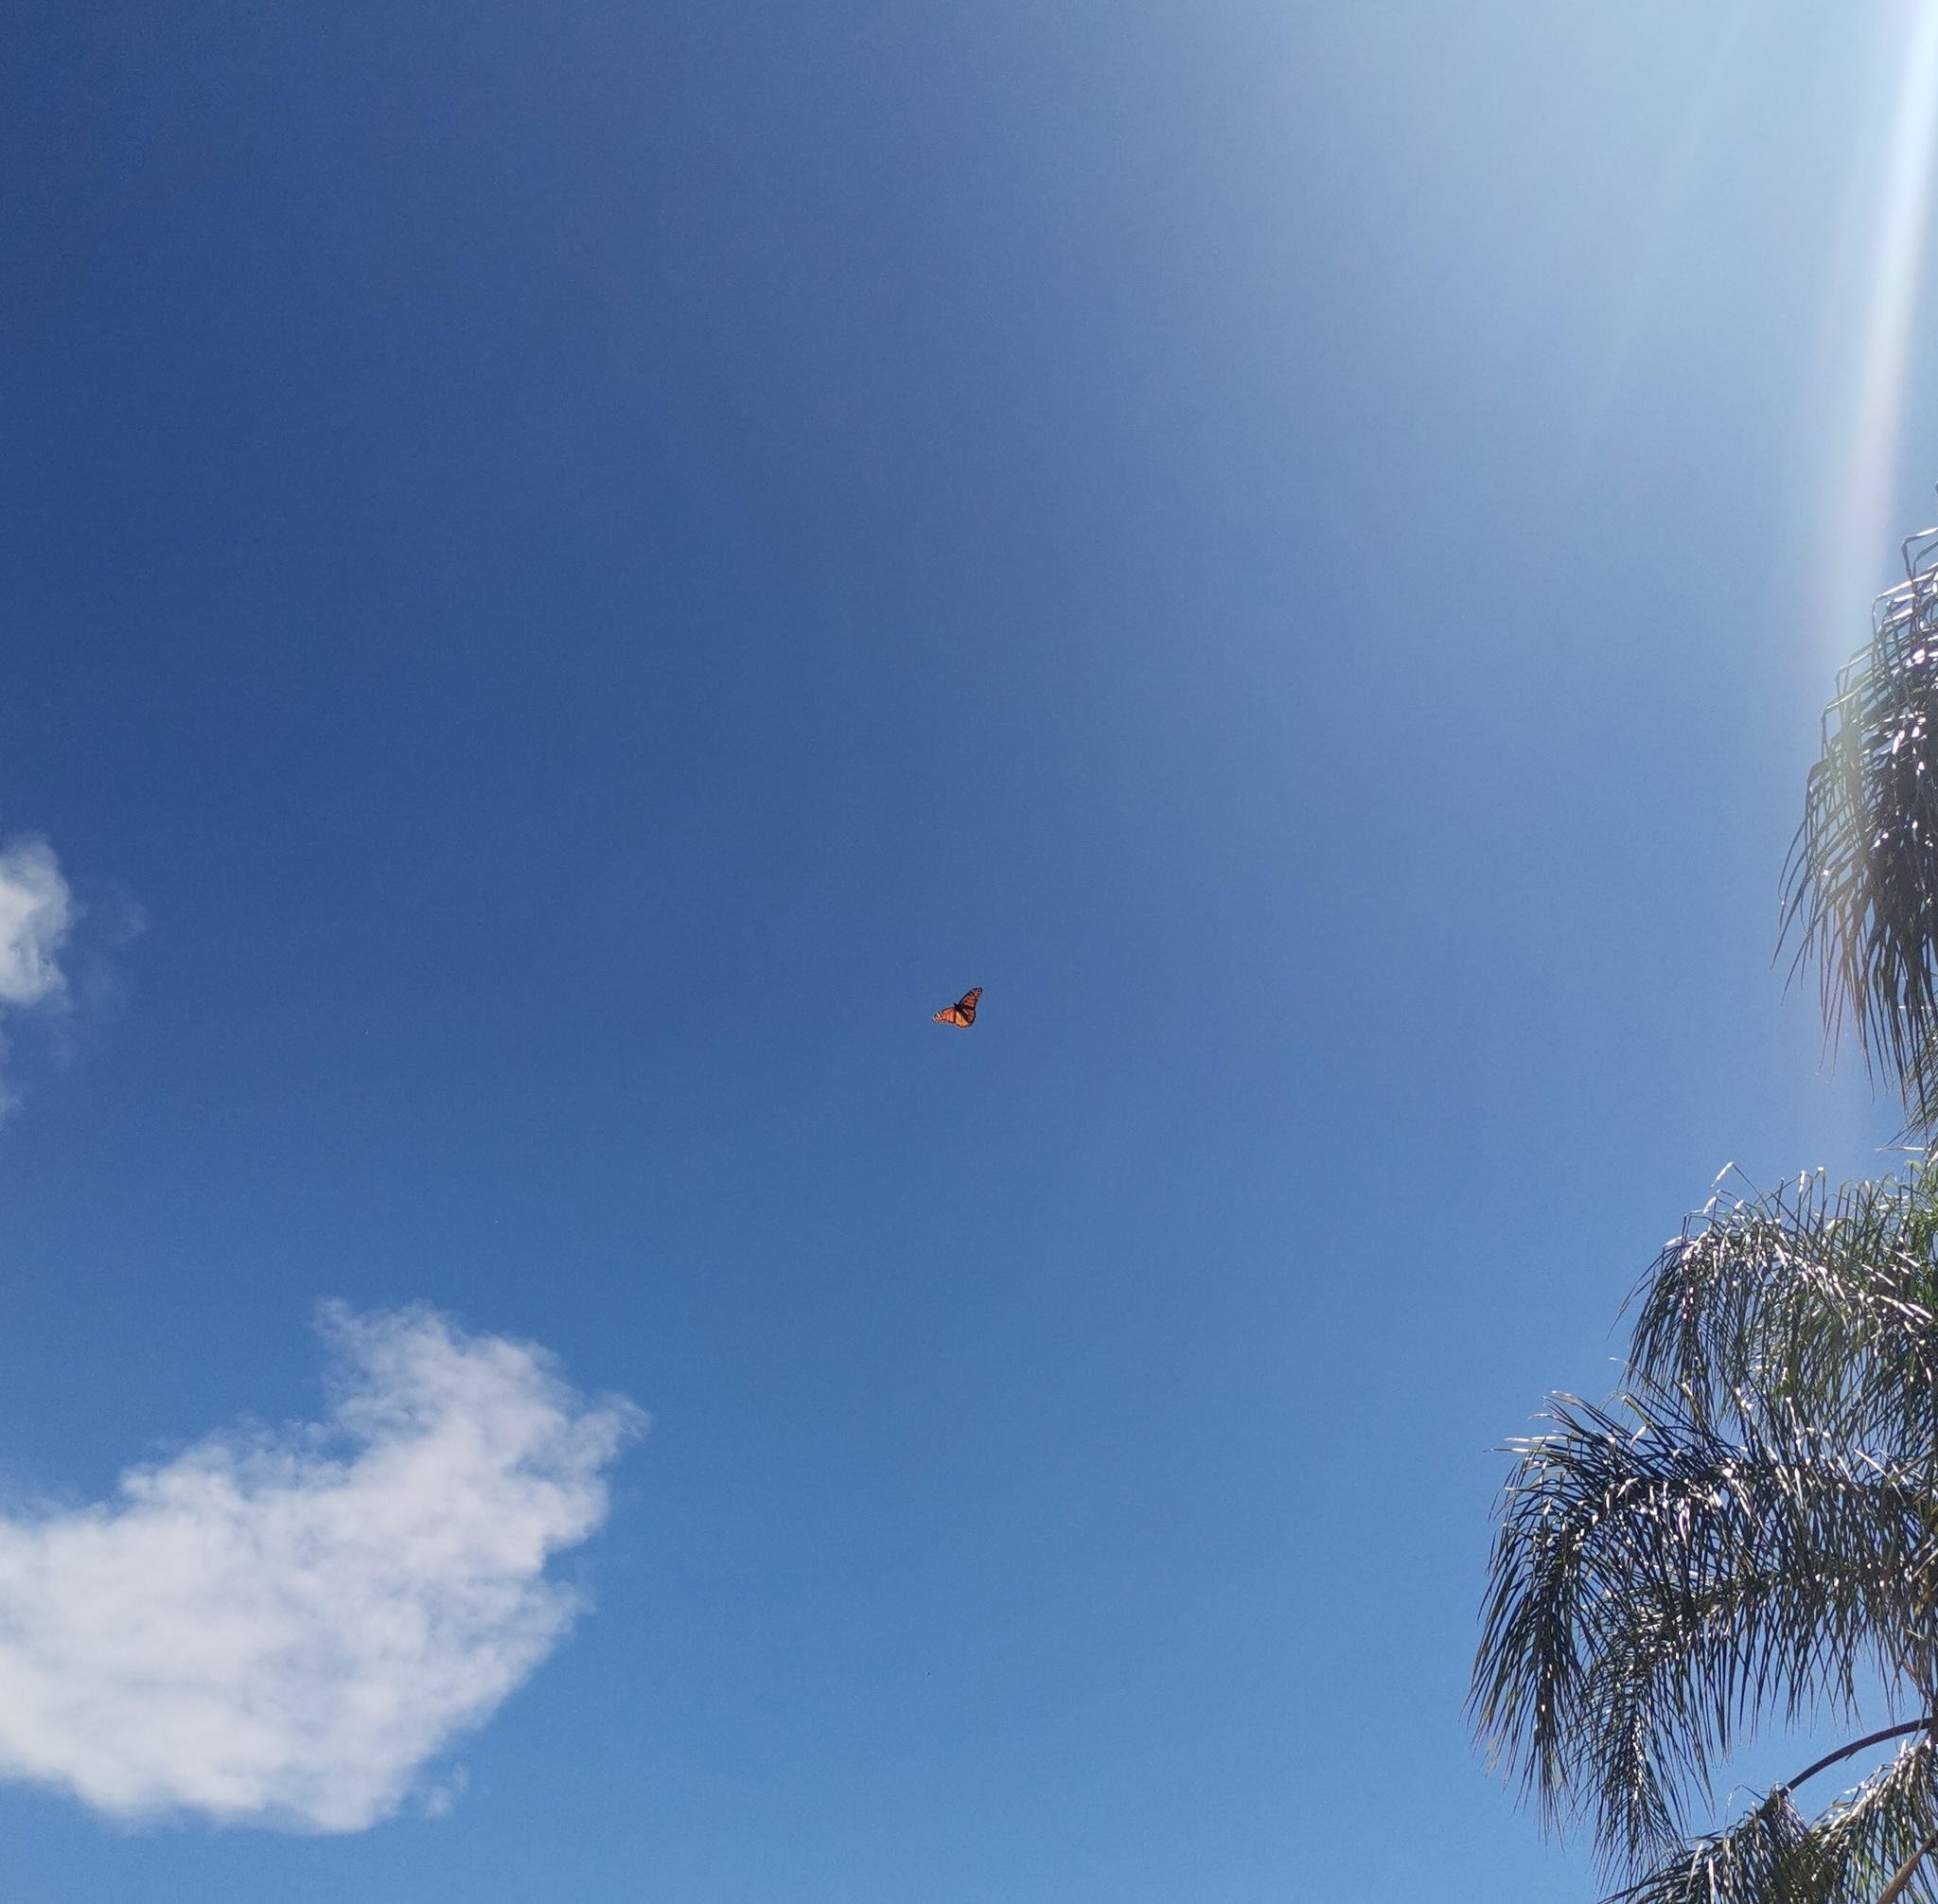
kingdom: Animalia
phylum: Arthropoda
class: Insecta
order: Lepidoptera
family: Nymphalidae
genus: Danaus
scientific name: Danaus plexippus
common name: Monarch
